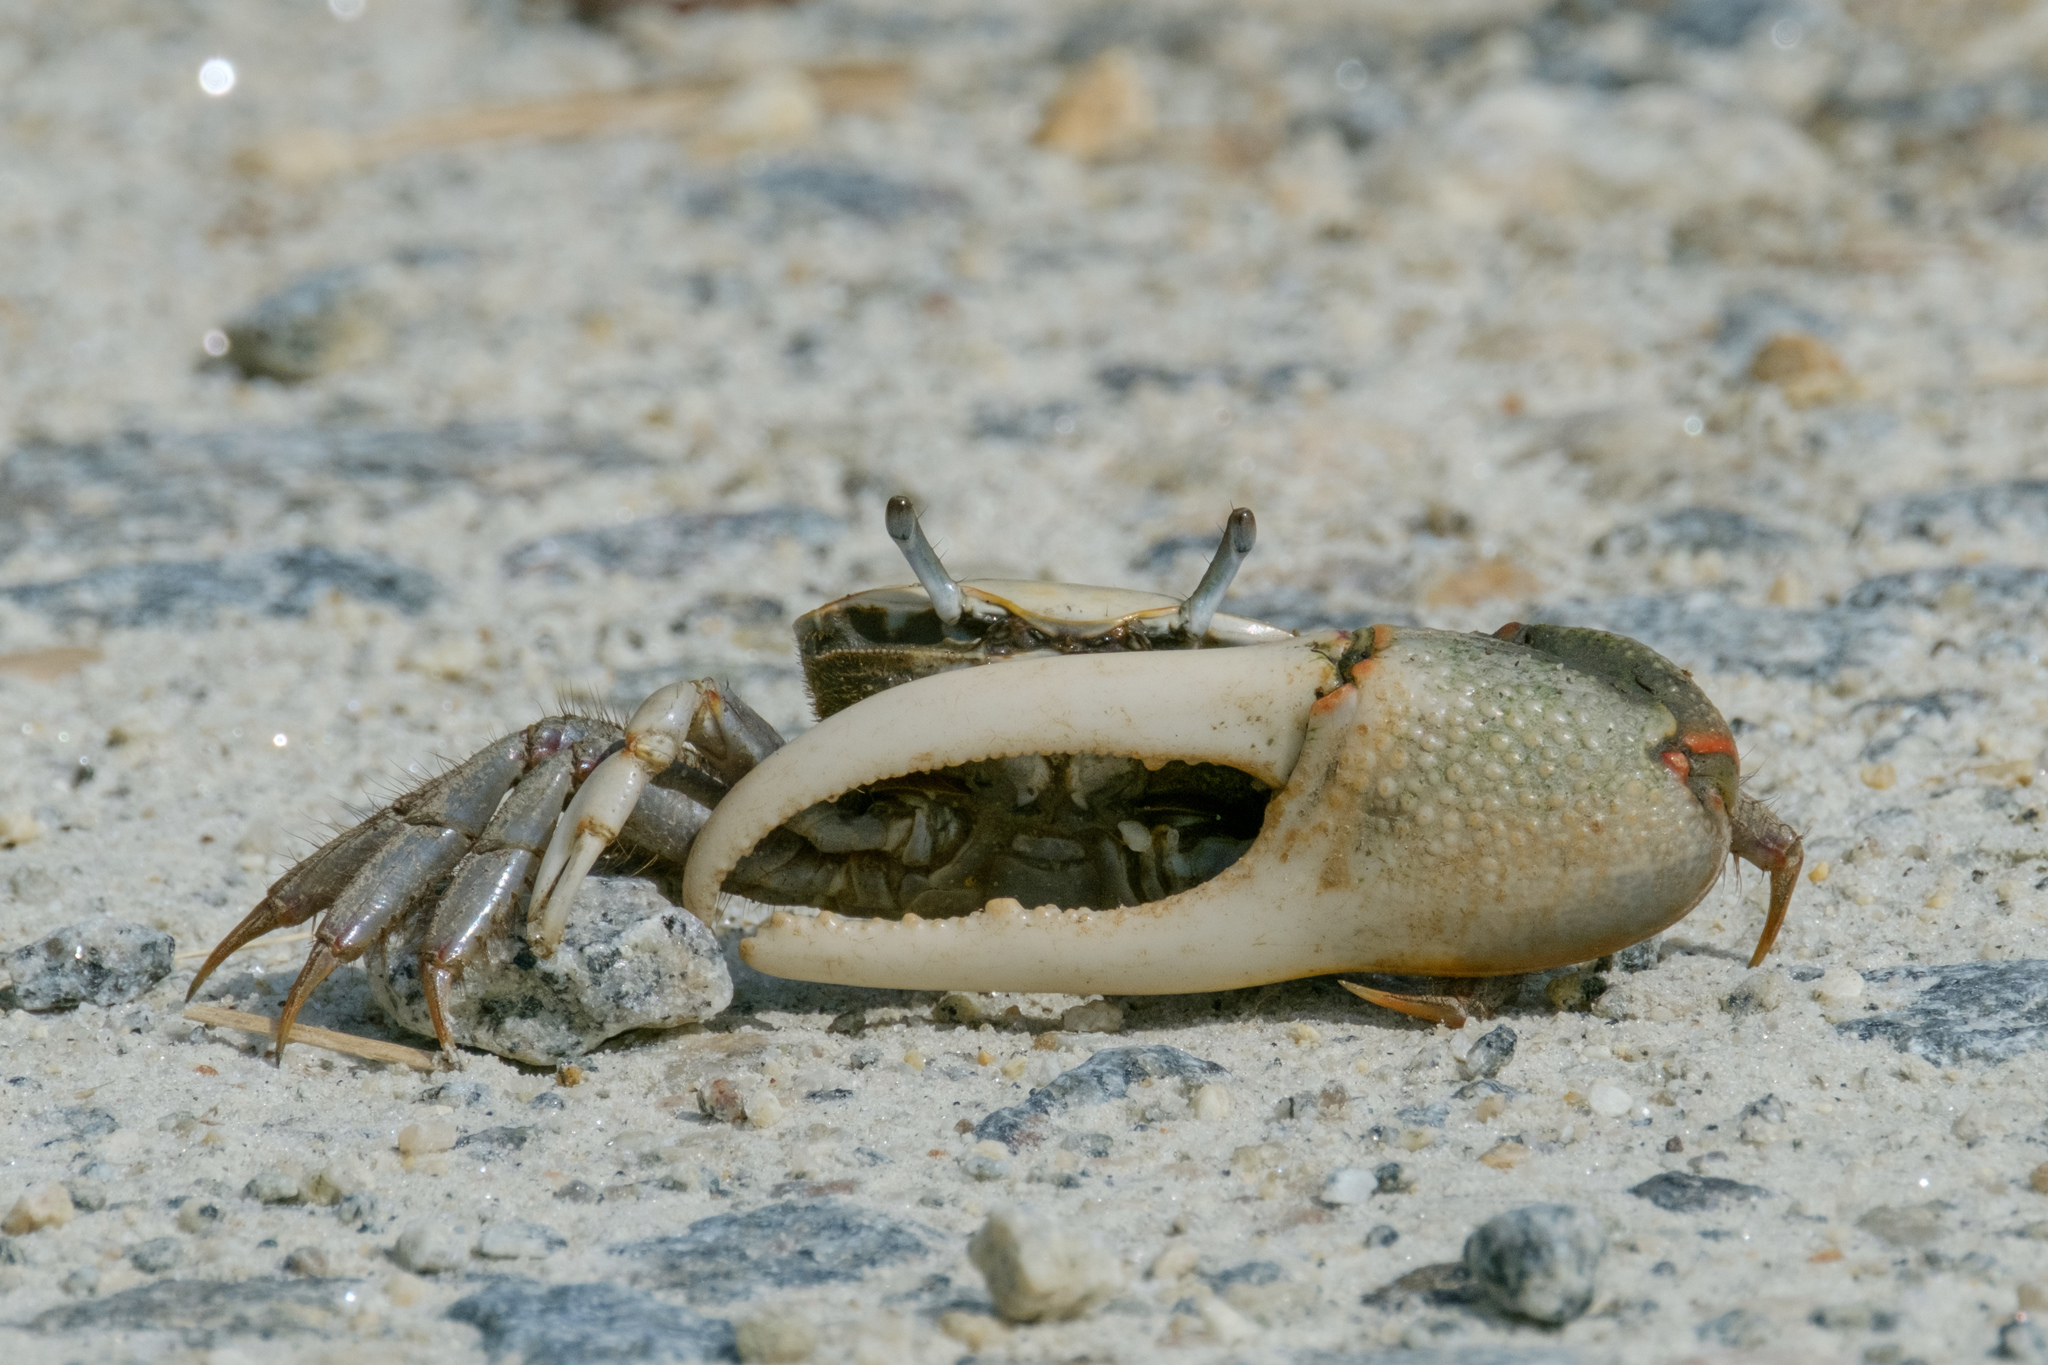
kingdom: Animalia
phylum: Arthropoda
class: Malacostraca
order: Decapoda
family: Ocypodidae
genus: Minuca
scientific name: Minuca minax
